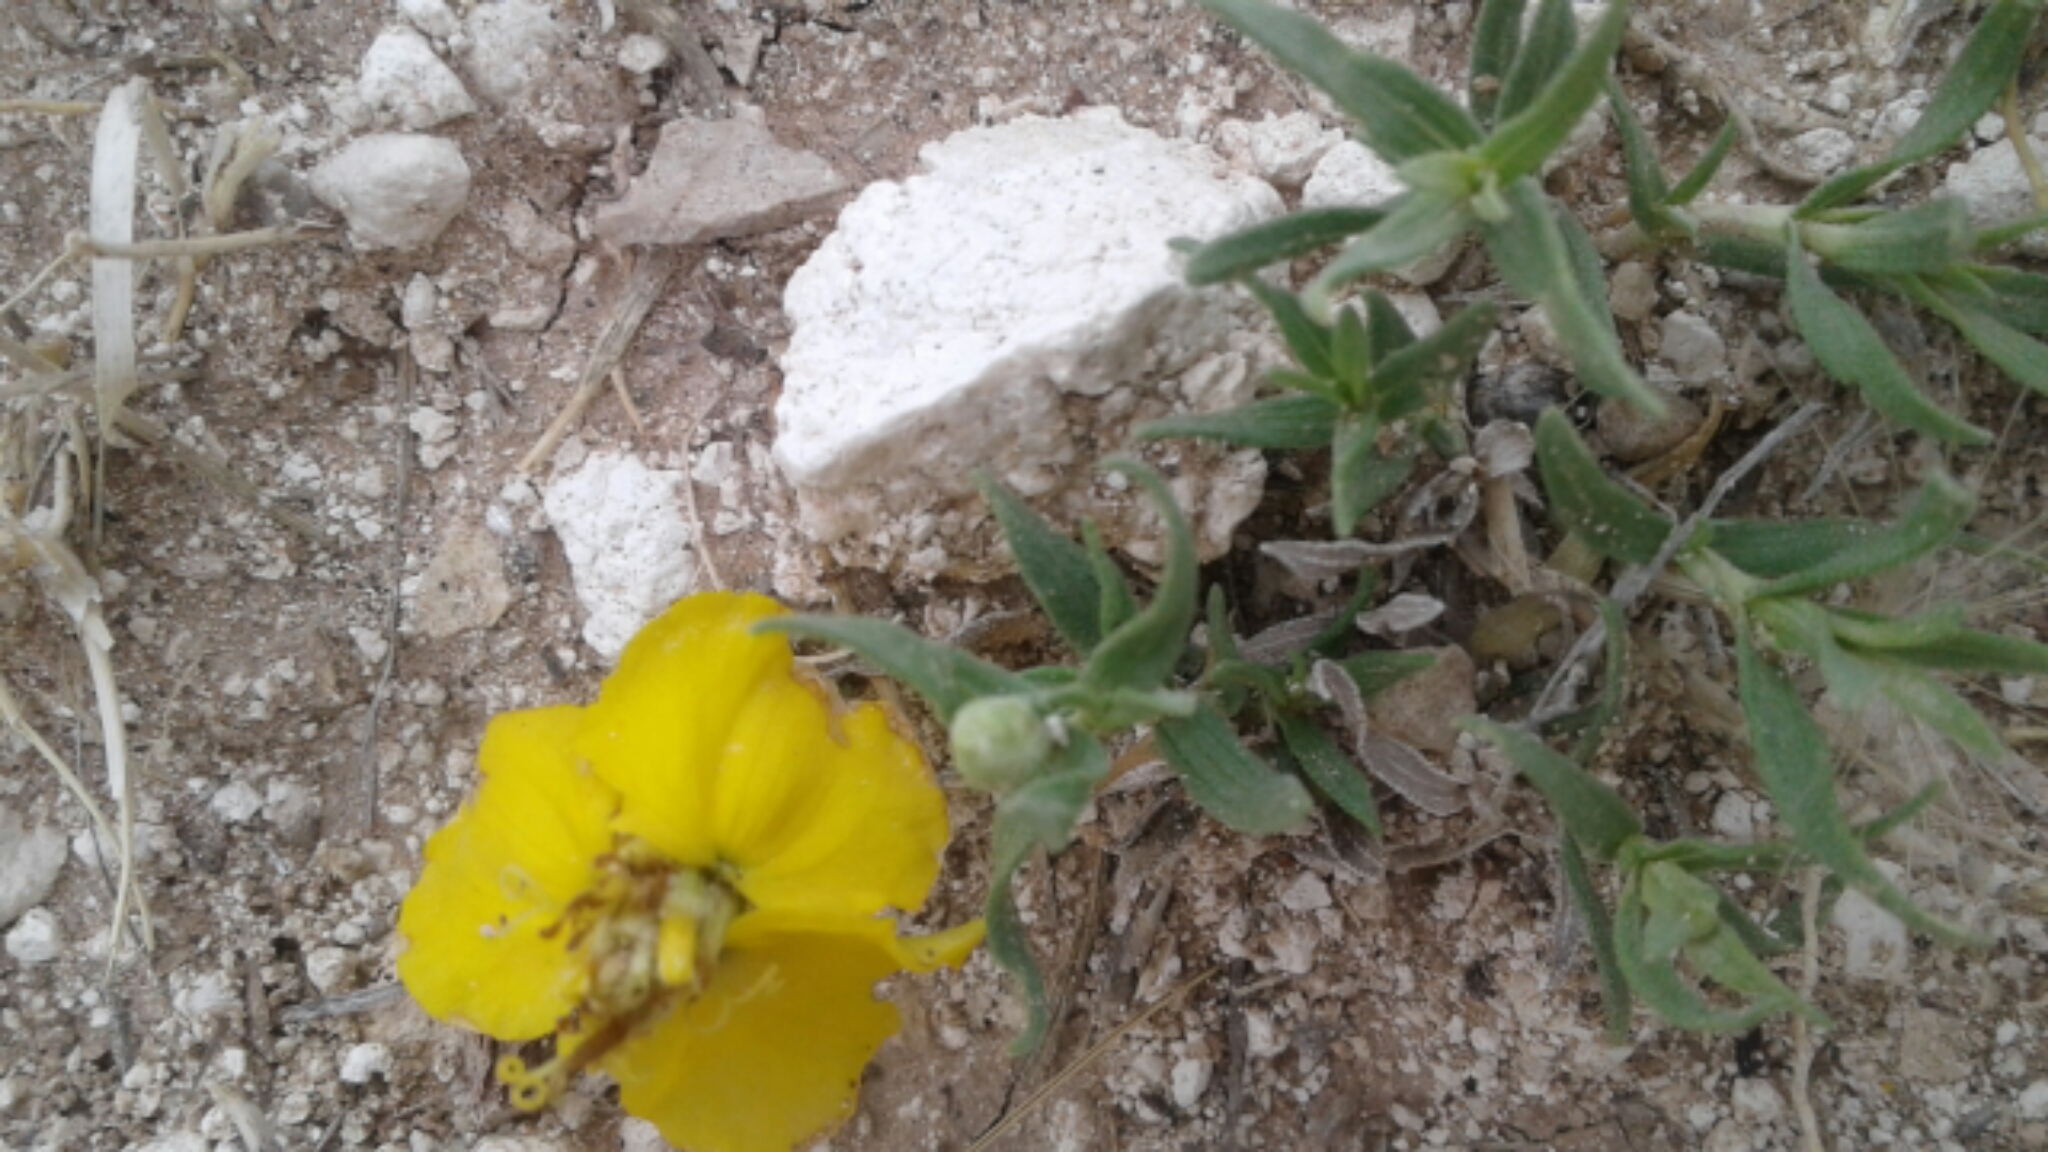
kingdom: Plantae
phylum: Tracheophyta
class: Magnoliopsida
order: Asterales
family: Asteraceae
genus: Zinnia
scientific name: Zinnia grandiflora
